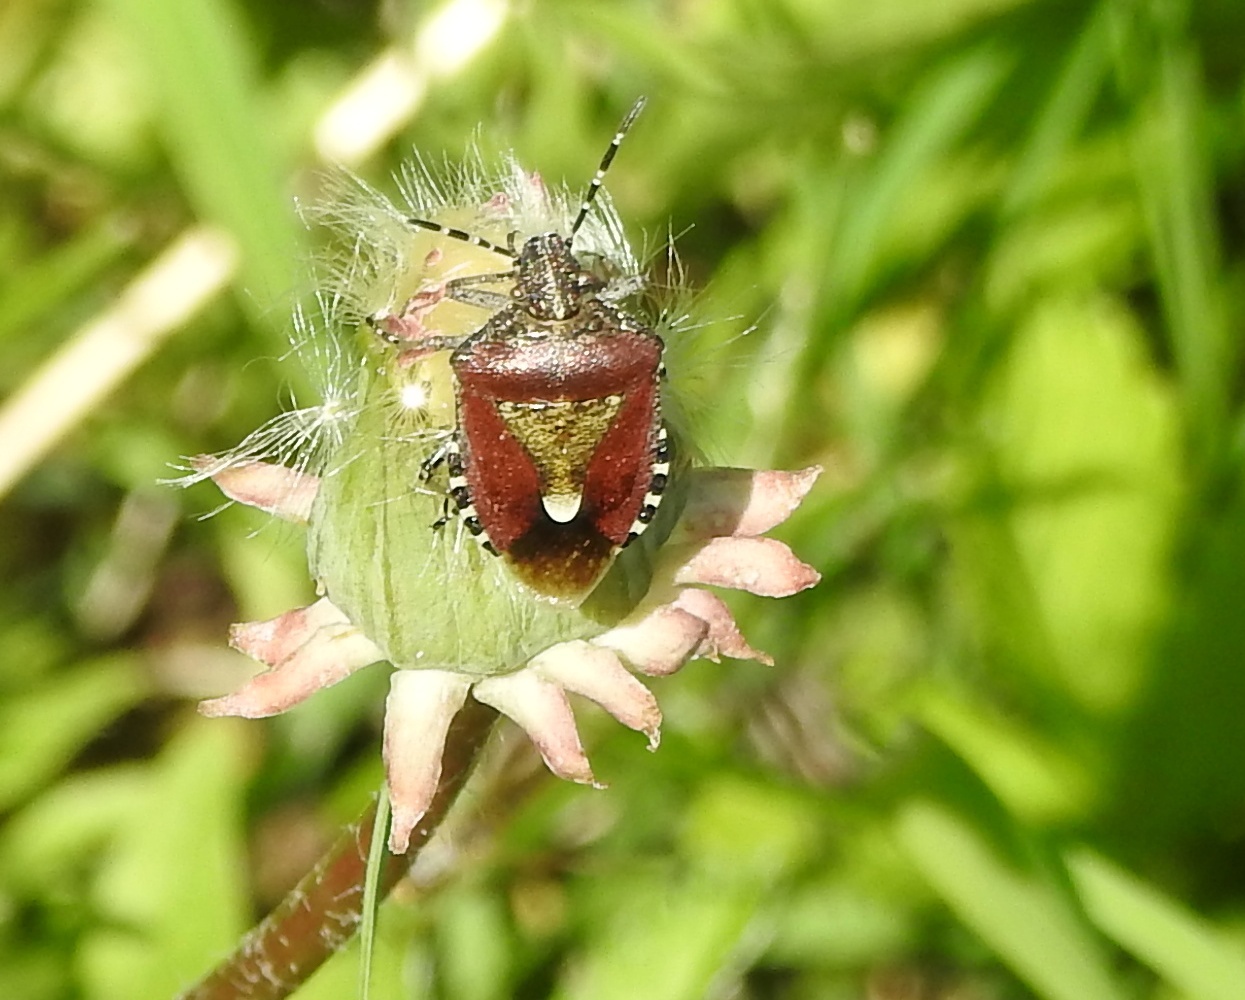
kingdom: Animalia
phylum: Arthropoda
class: Insecta
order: Hemiptera
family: Pentatomidae
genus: Dolycoris
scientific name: Dolycoris baccarum
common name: Sloe bug
